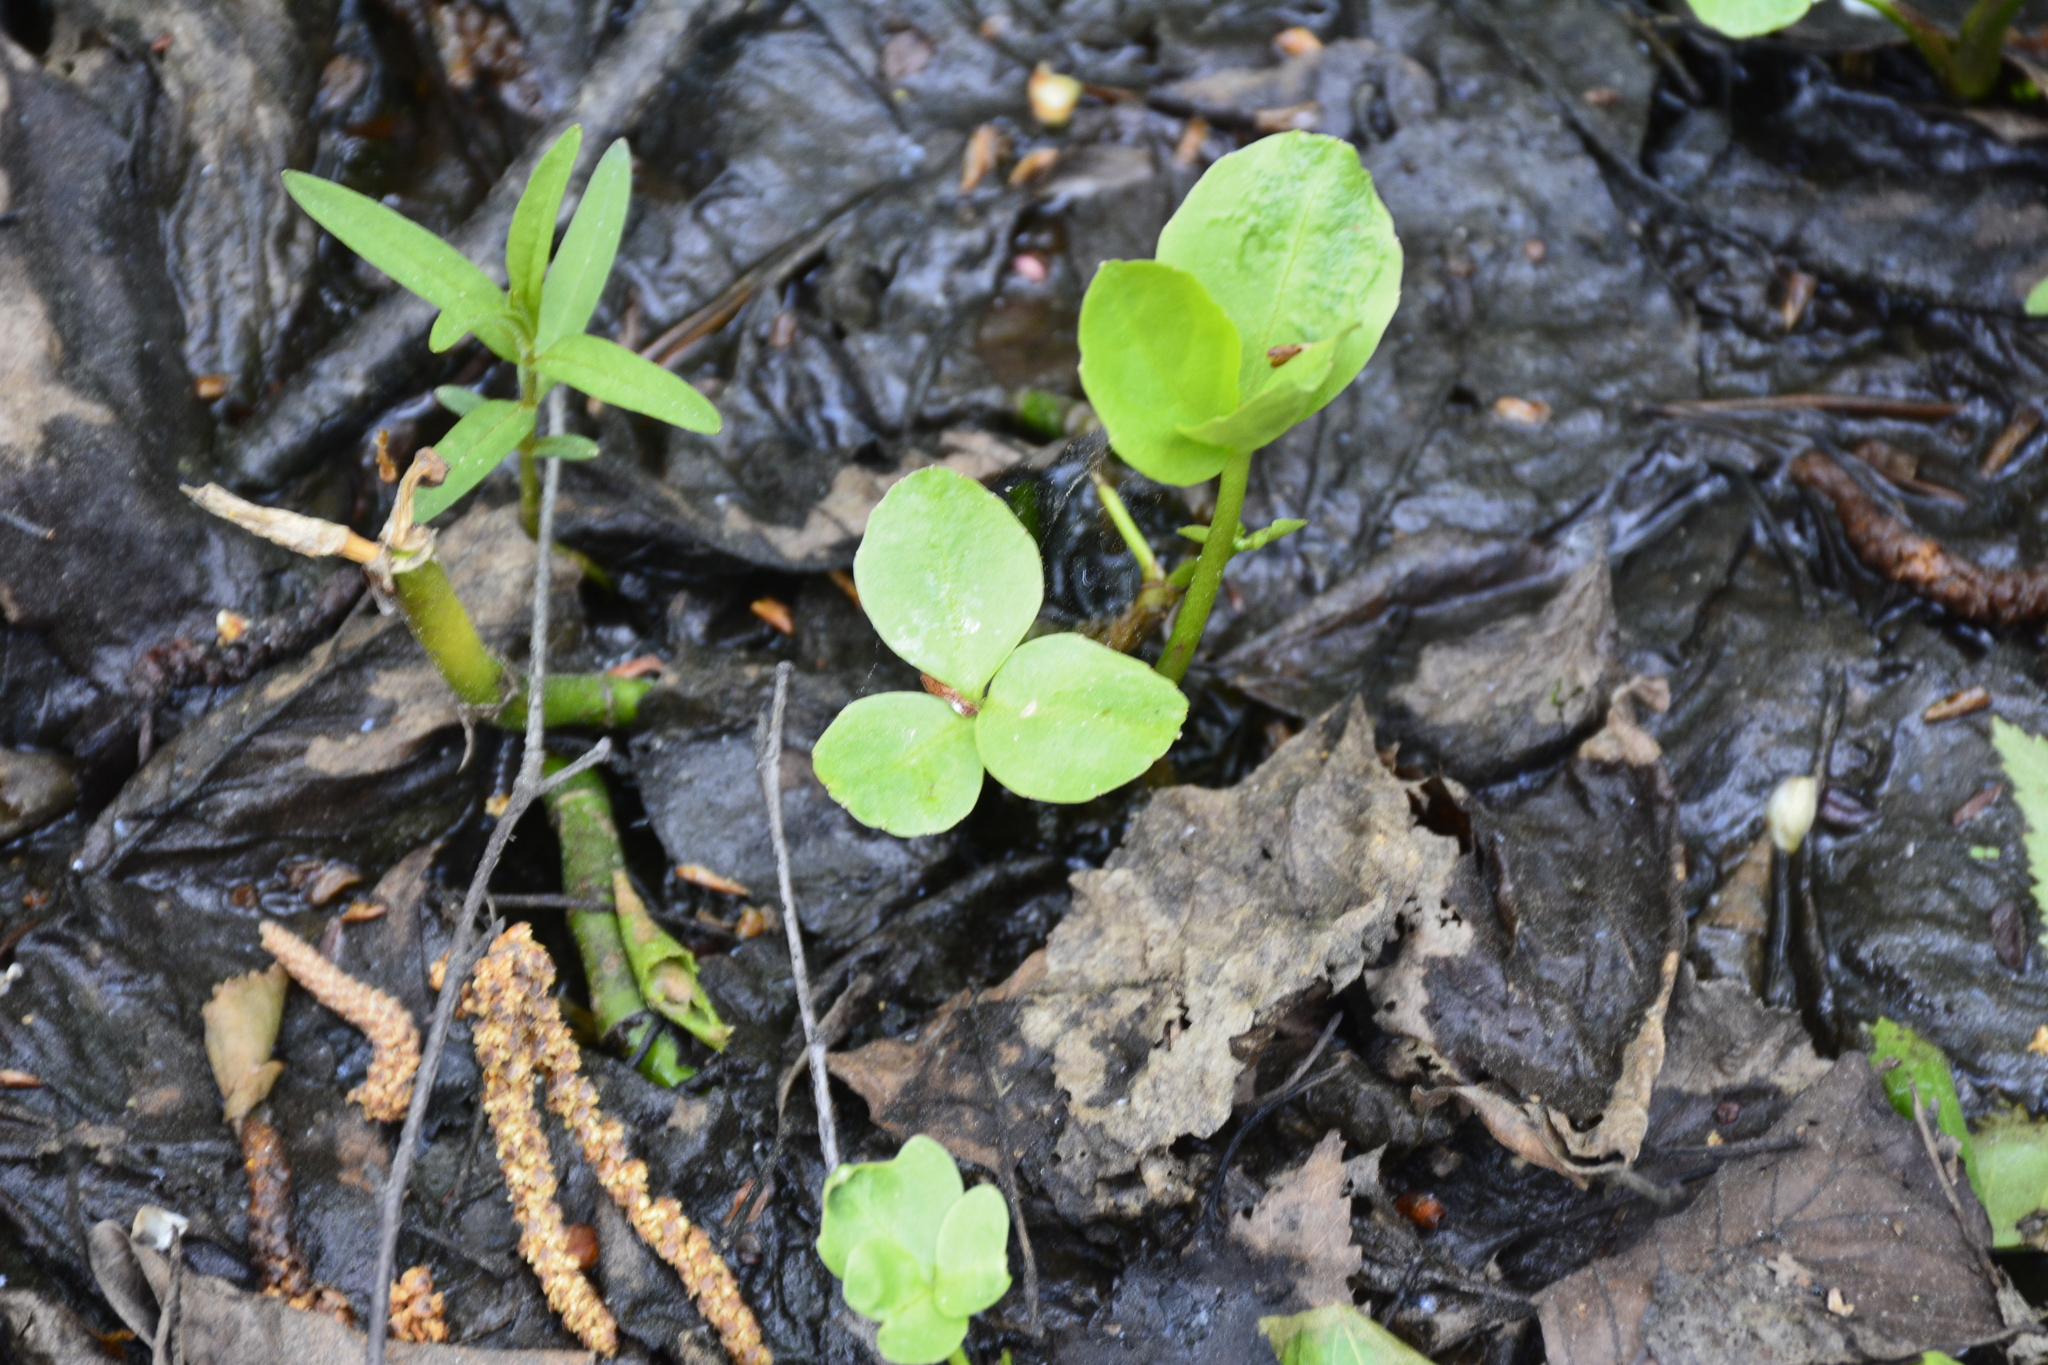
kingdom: Plantae
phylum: Tracheophyta
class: Magnoliopsida
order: Asterales
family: Menyanthaceae
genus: Menyanthes
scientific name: Menyanthes trifoliata
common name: Bogbean
